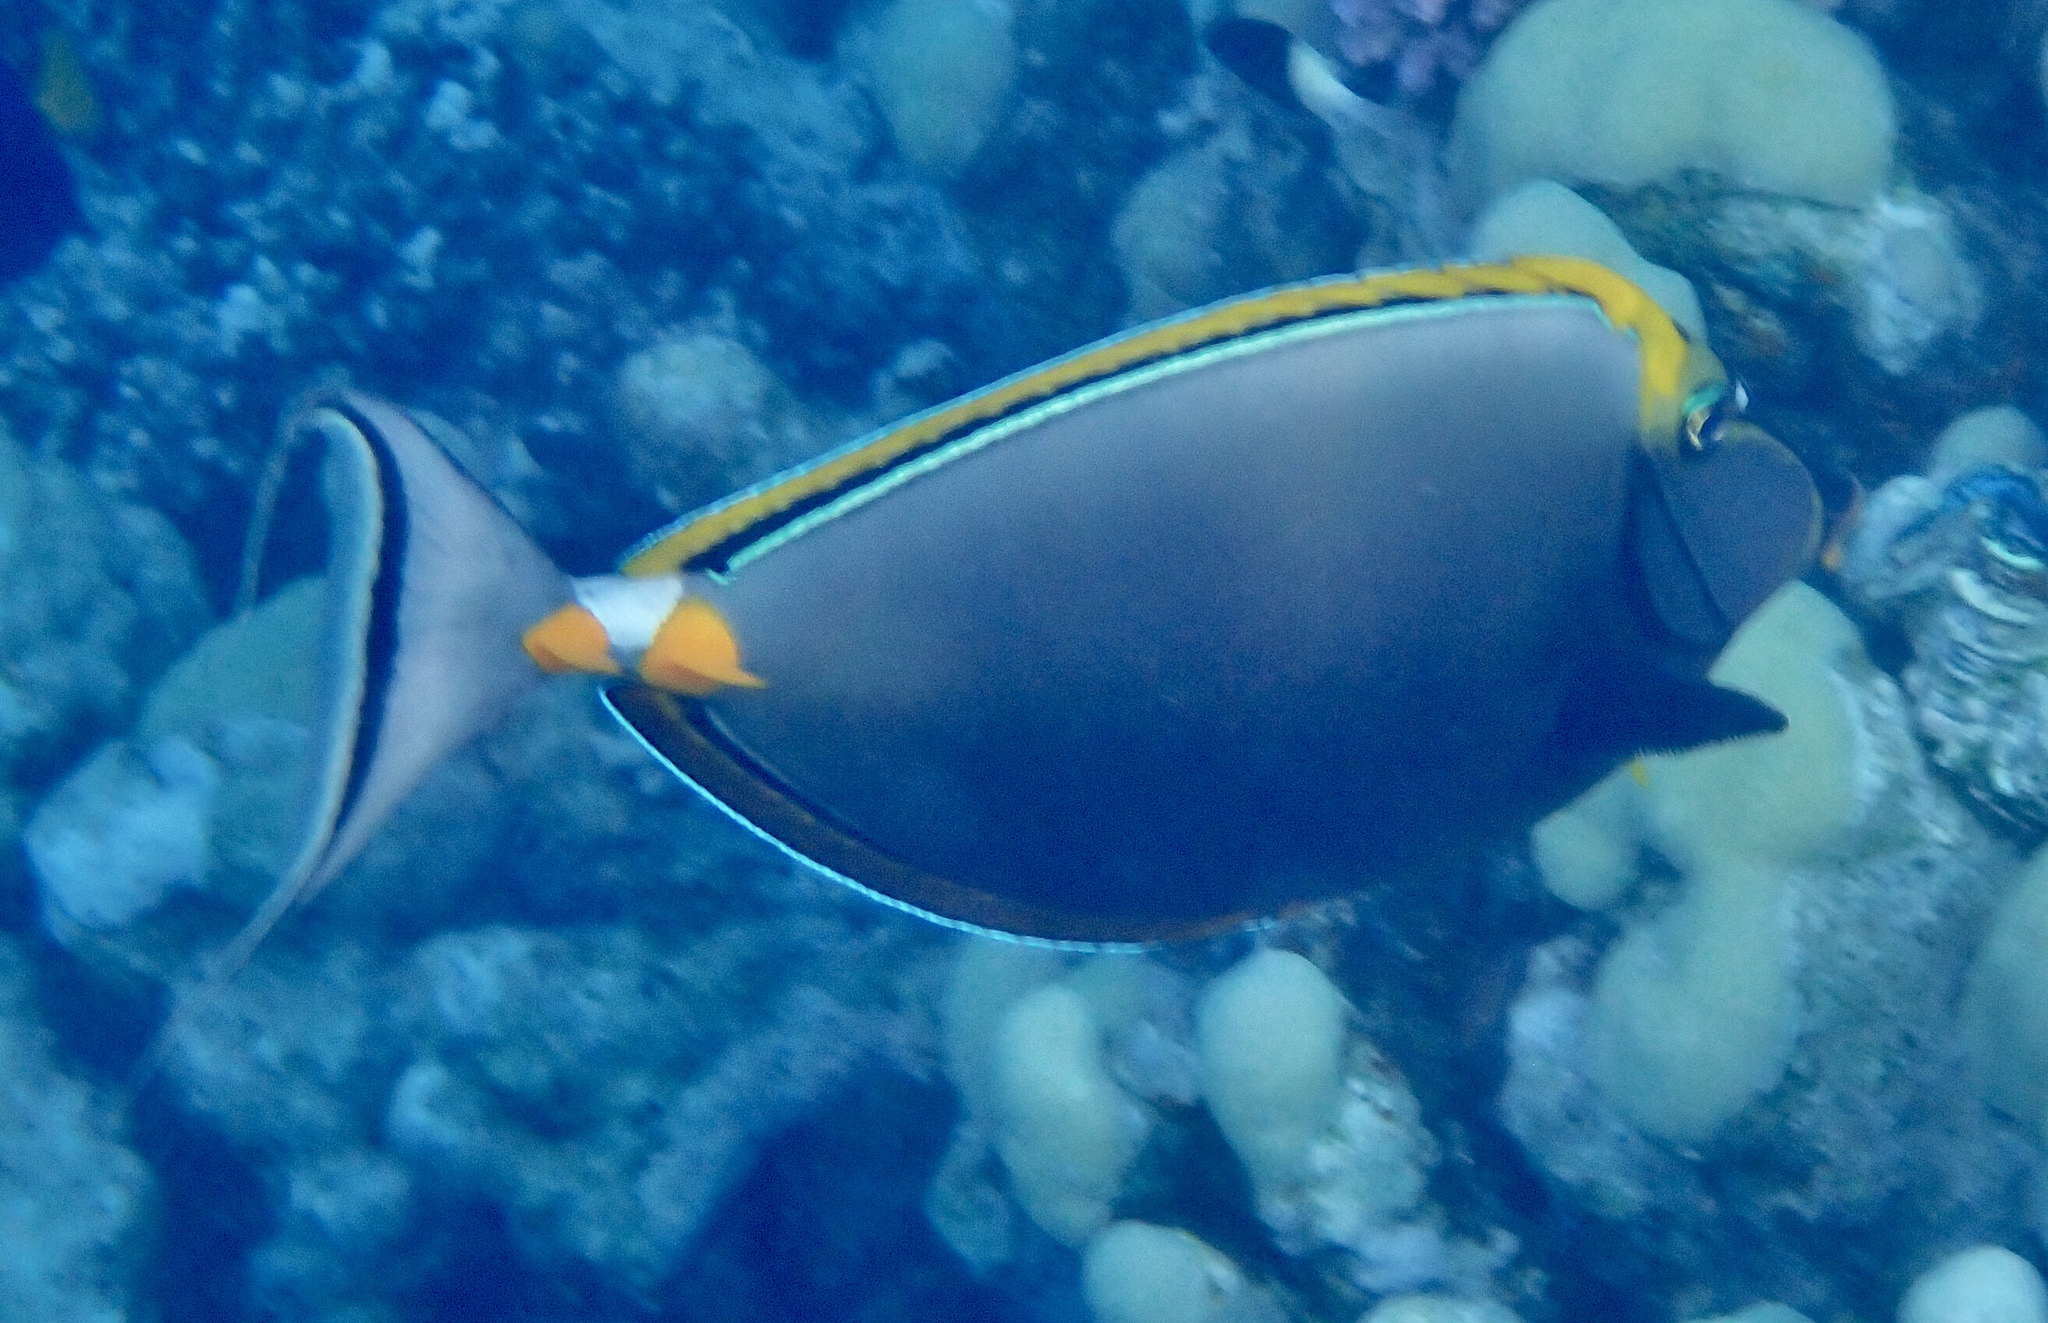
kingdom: Animalia
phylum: Chordata
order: Perciformes
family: Acanthuridae
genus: Naso
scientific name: Naso elegans
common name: Orangespine unicornfish
